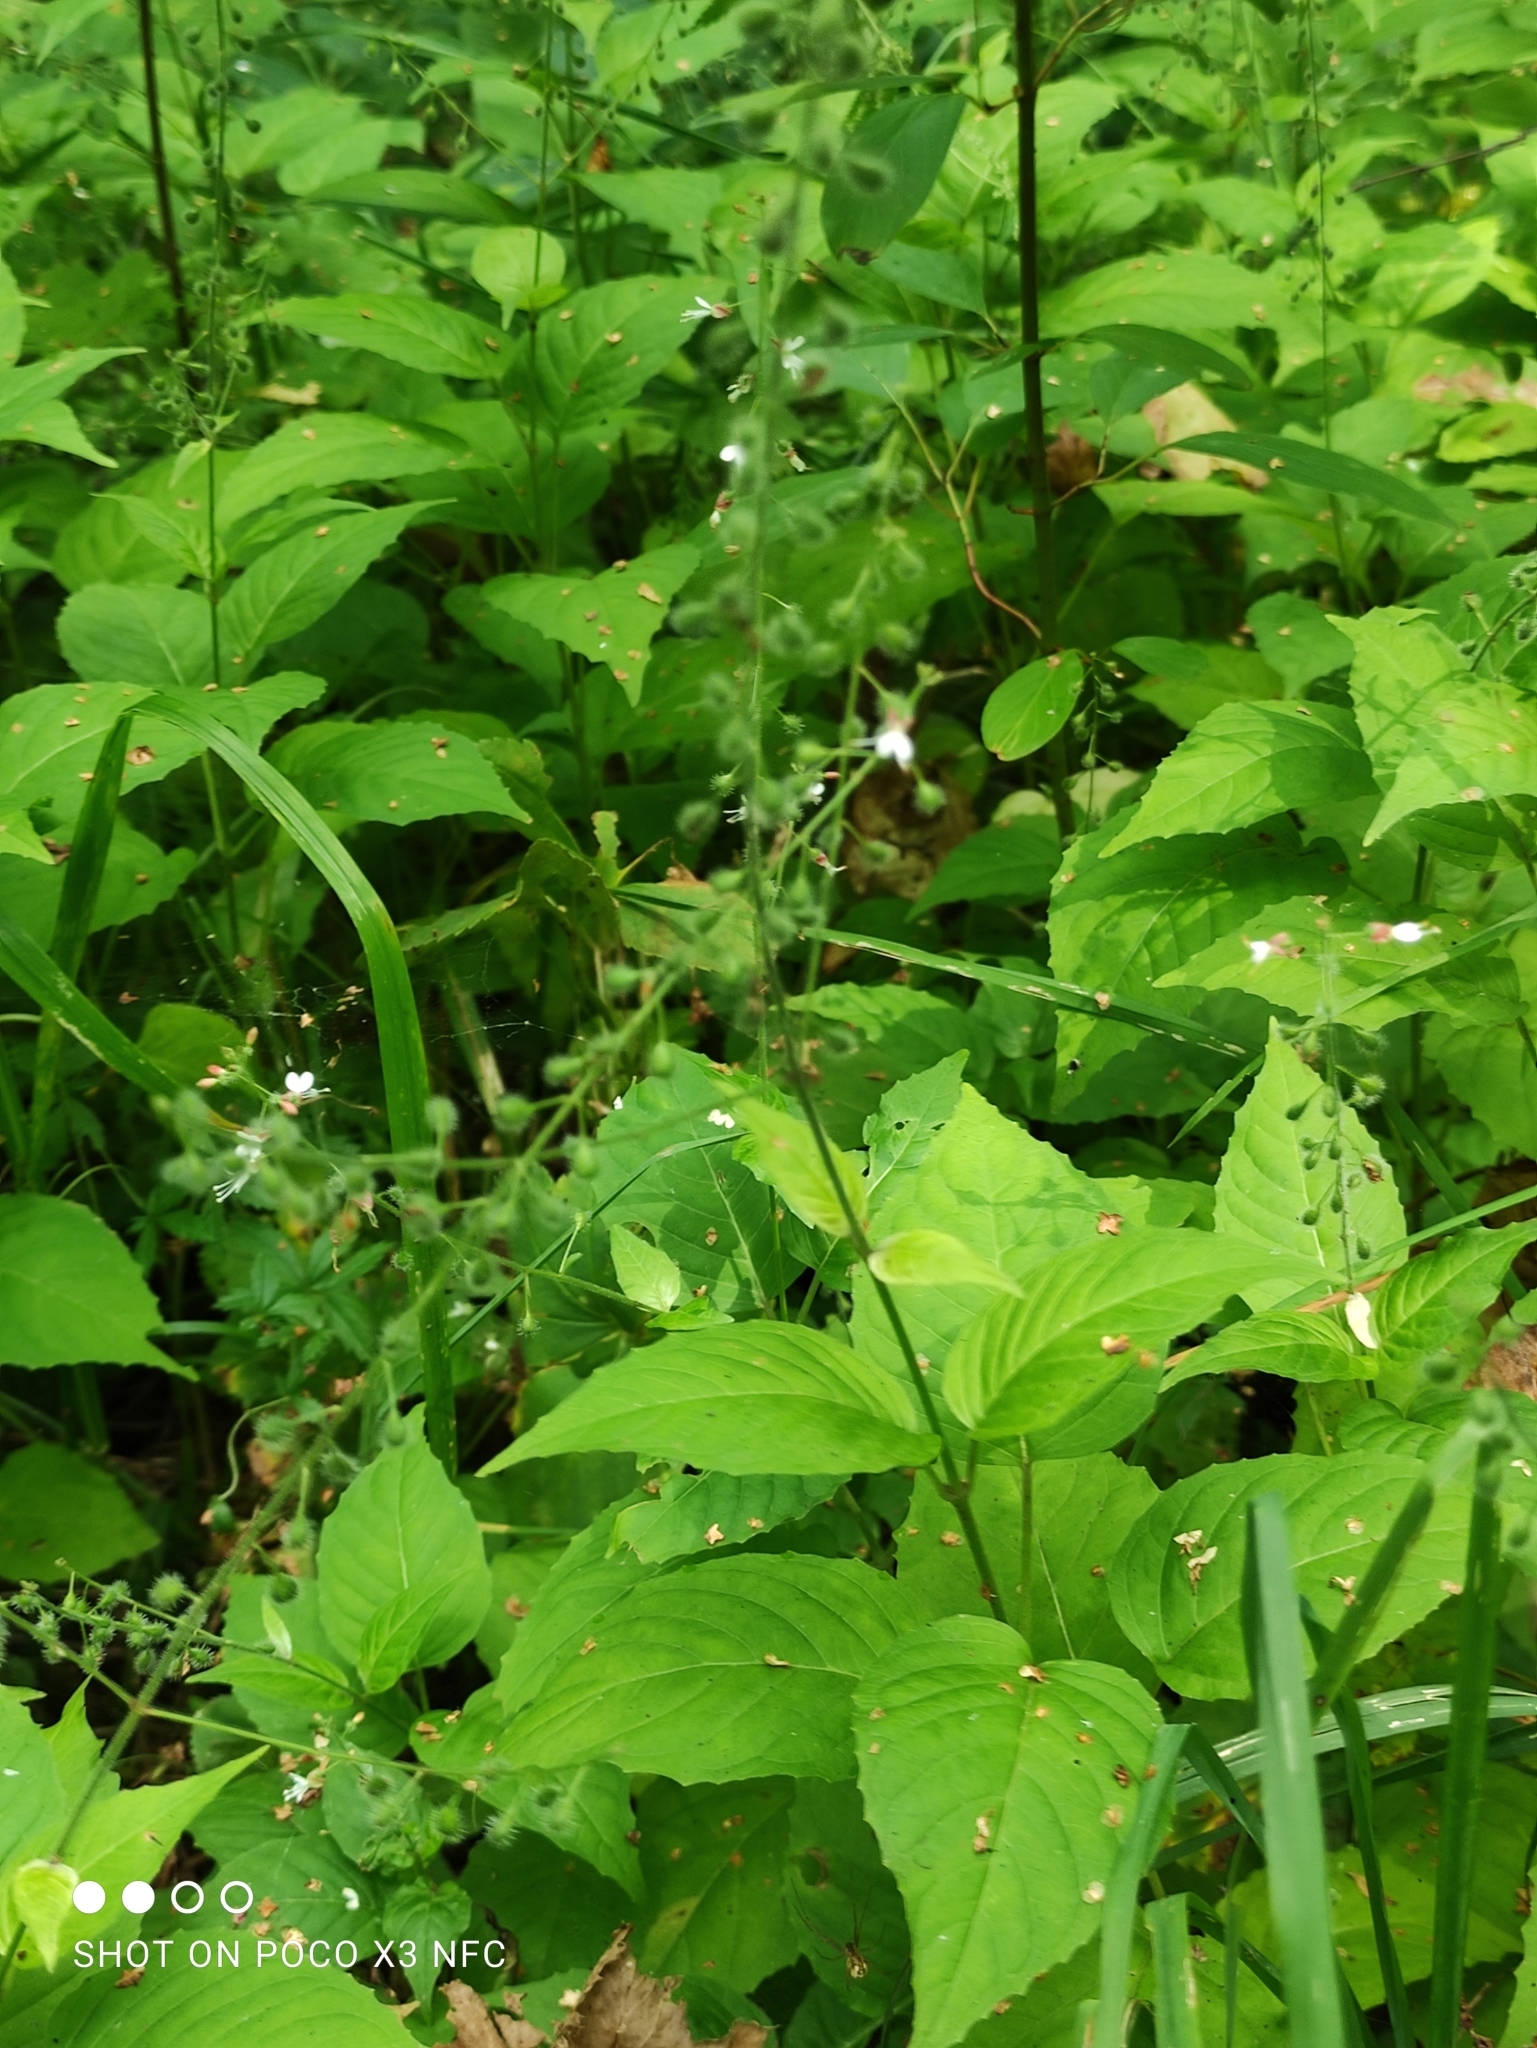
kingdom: Plantae
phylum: Tracheophyta
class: Magnoliopsida
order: Myrtales
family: Onagraceae
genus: Circaea
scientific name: Circaea lutetiana
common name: Enchanter's-nightshade
